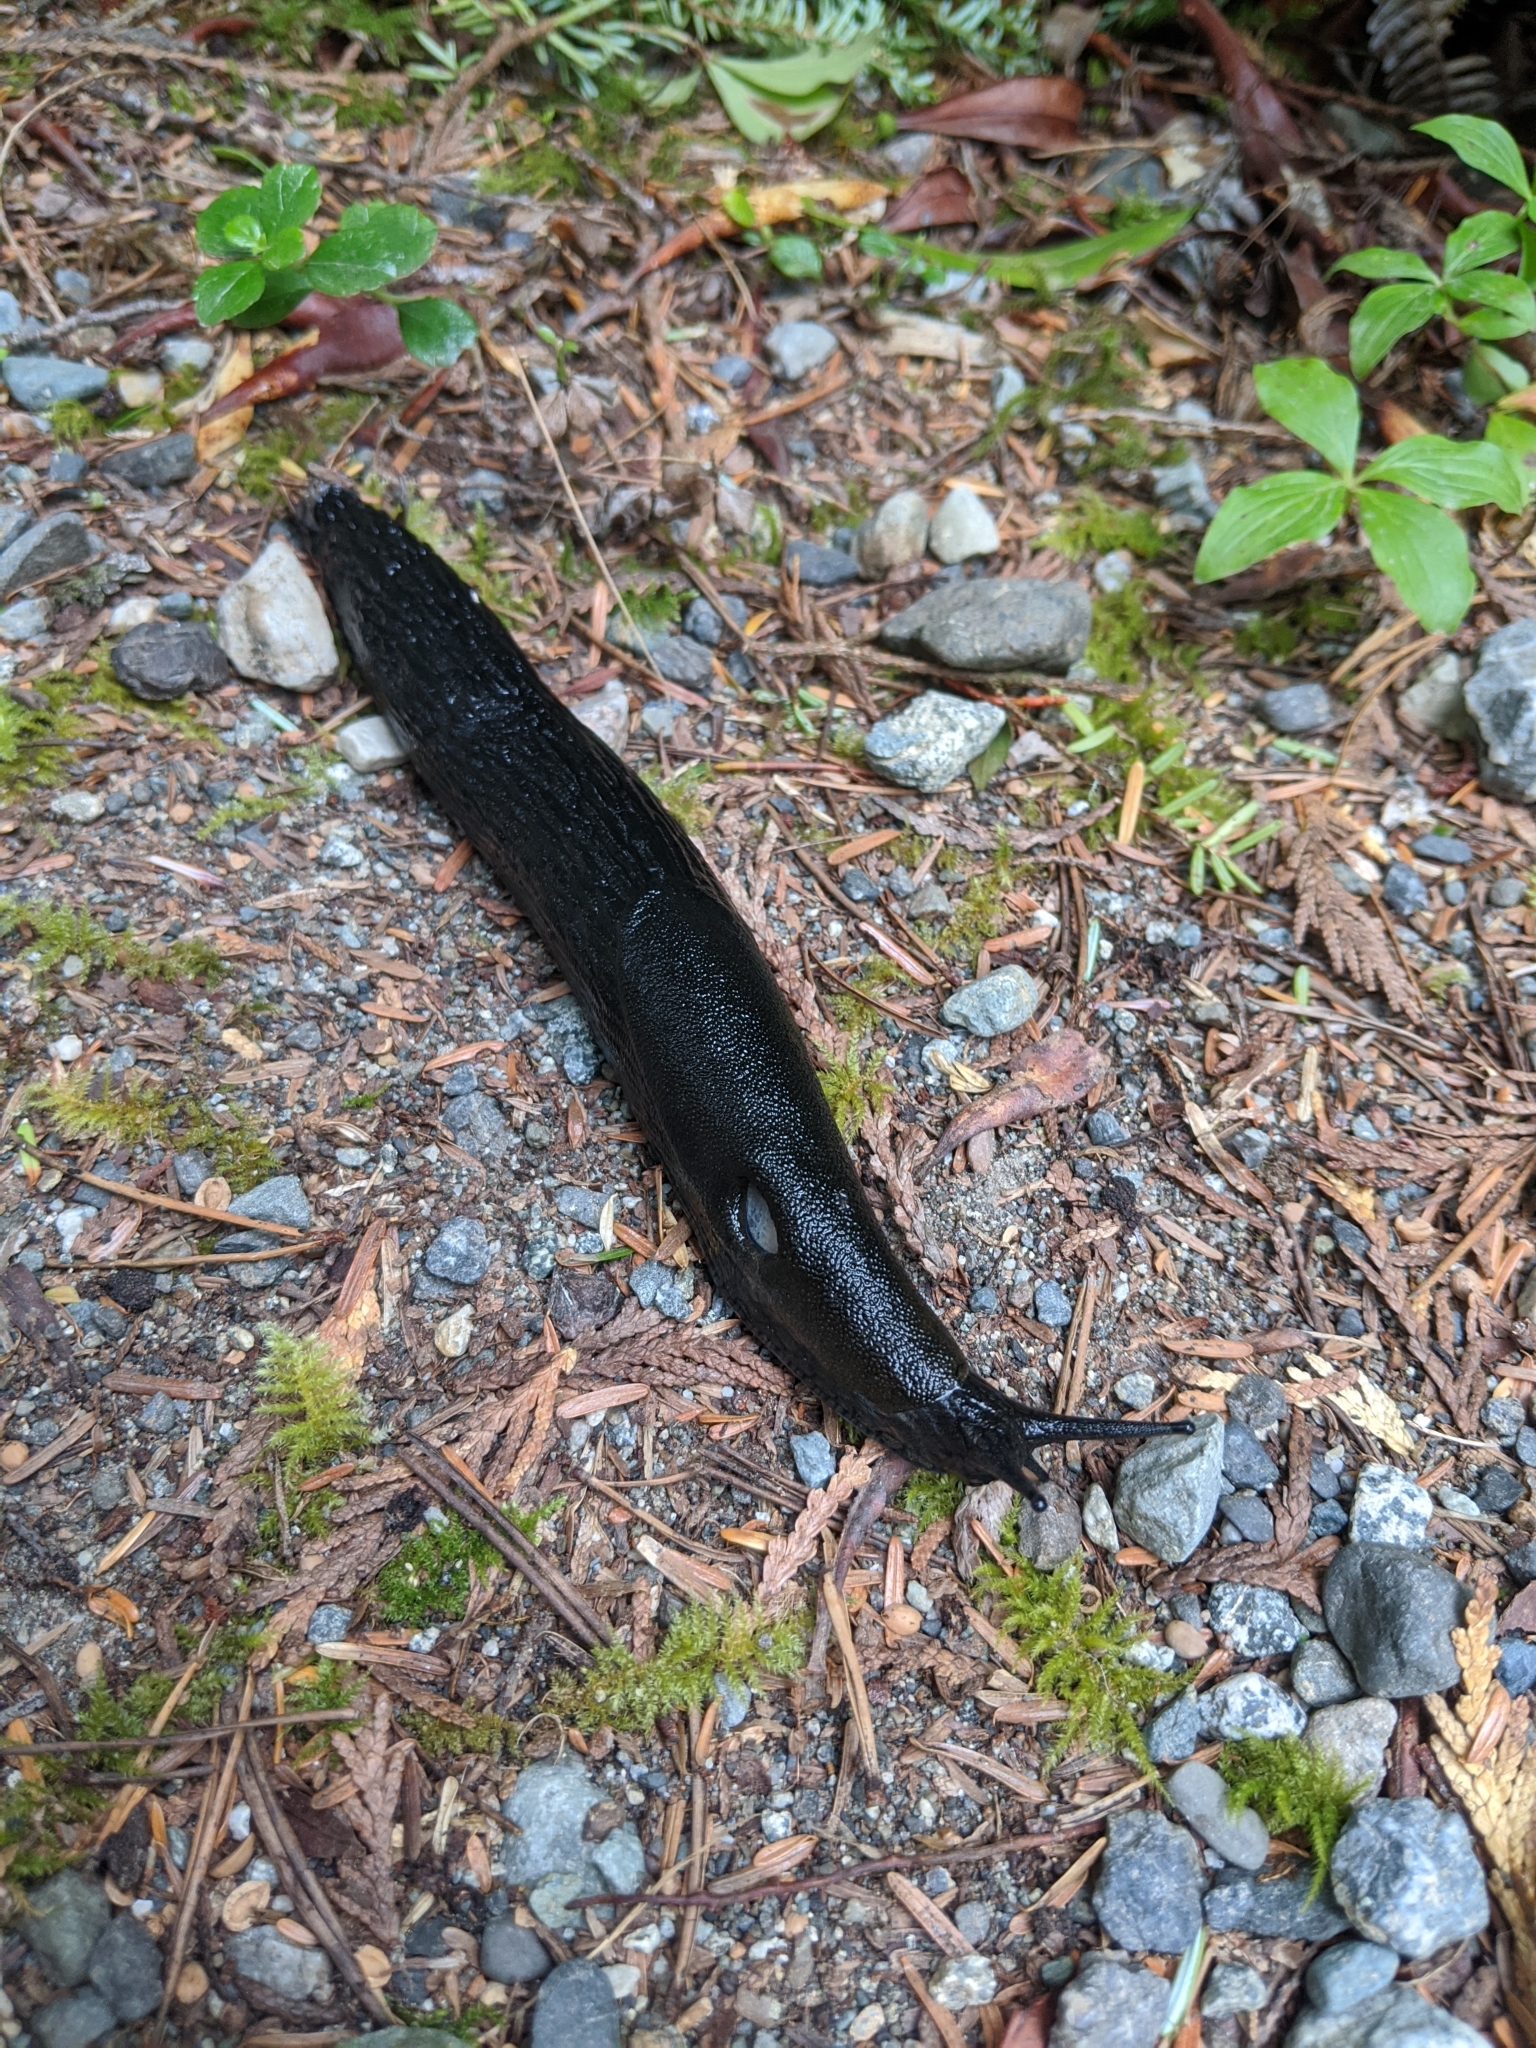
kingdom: Animalia
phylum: Mollusca
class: Gastropoda
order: Stylommatophora
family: Arionidae
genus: Arion
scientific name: Arion rufus
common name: Chocolate arion
